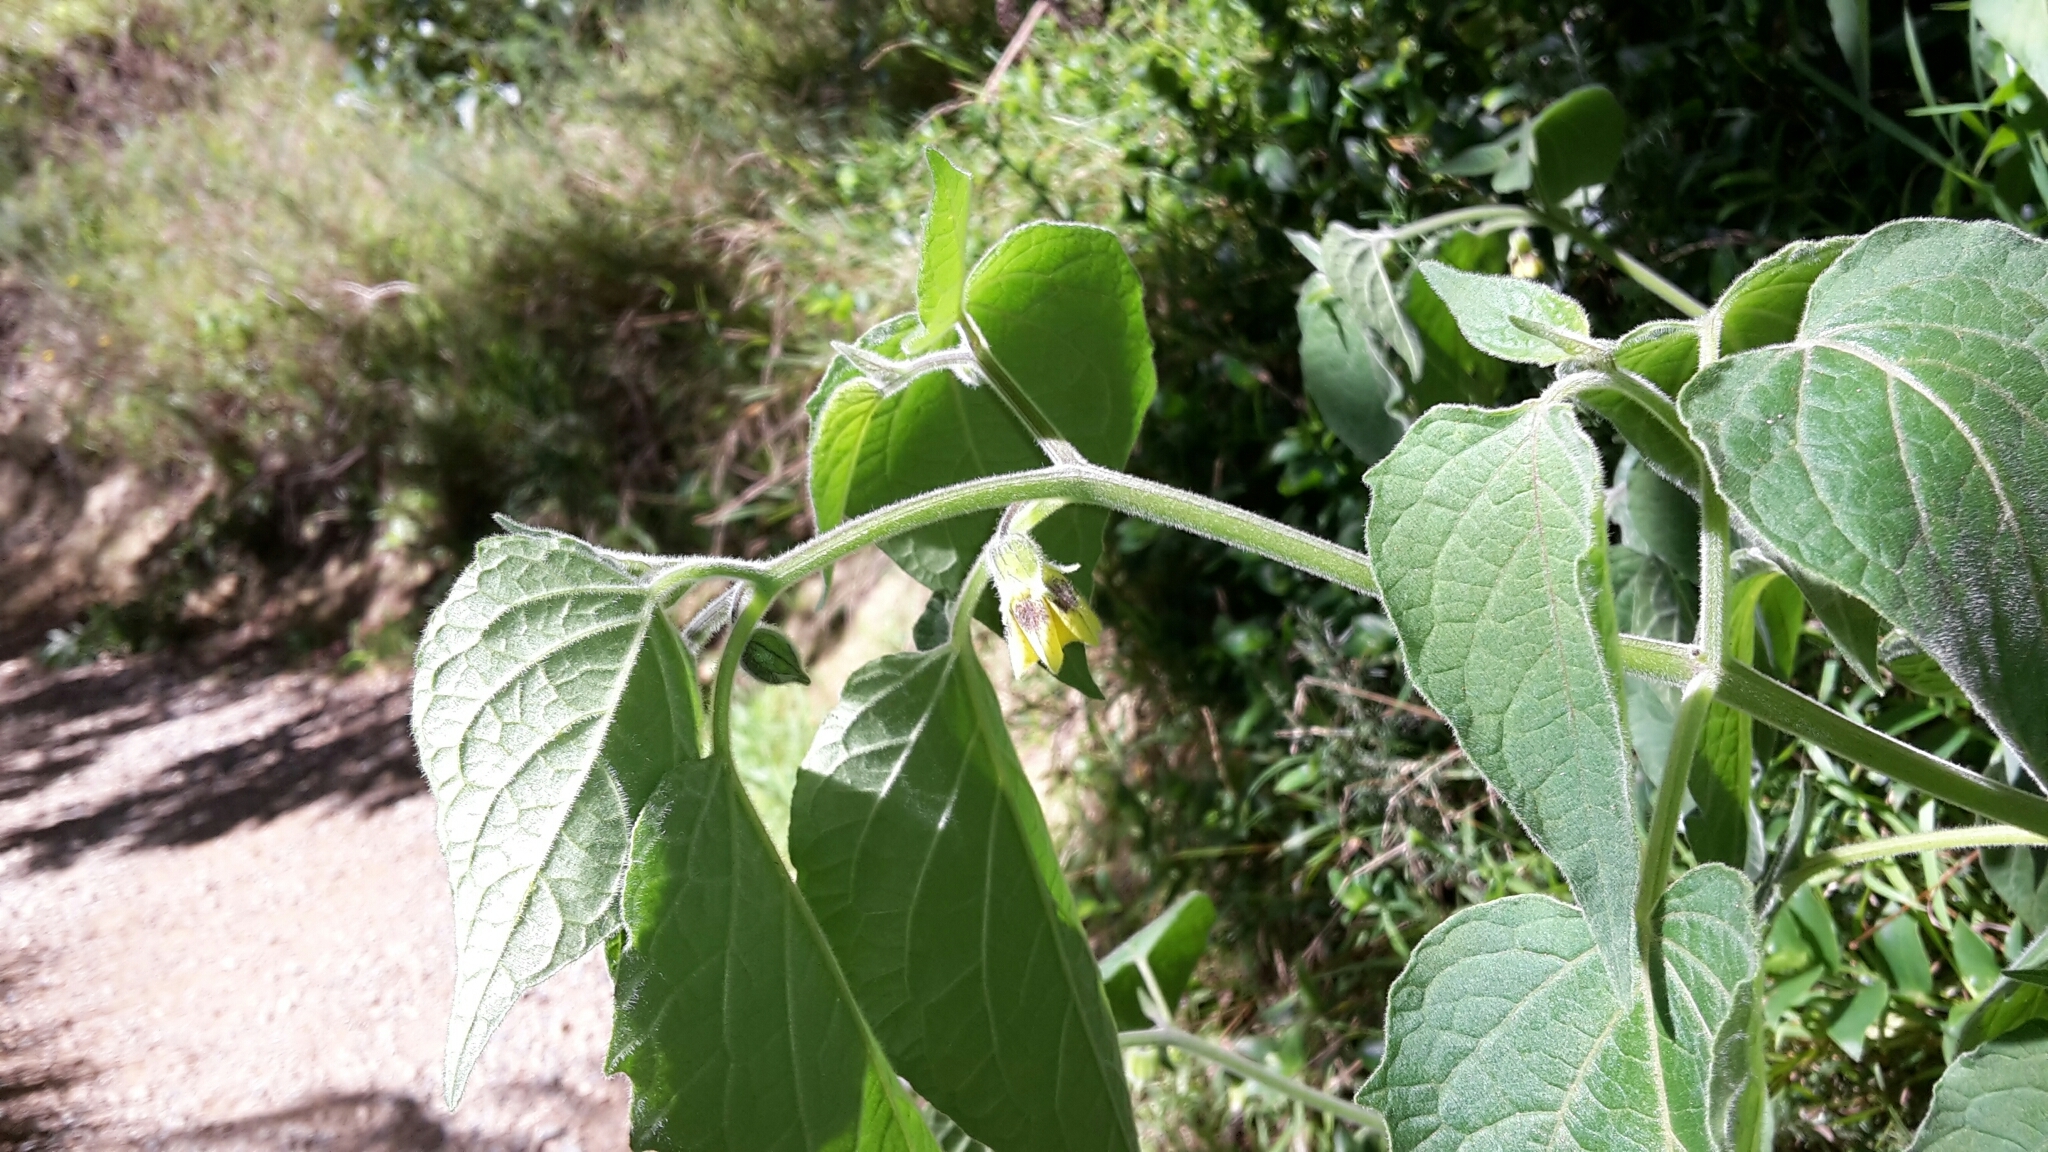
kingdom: Plantae
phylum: Tracheophyta
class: Magnoliopsida
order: Solanales
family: Solanaceae
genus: Physalis
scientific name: Physalis peruviana
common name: Cape-gooseberry
